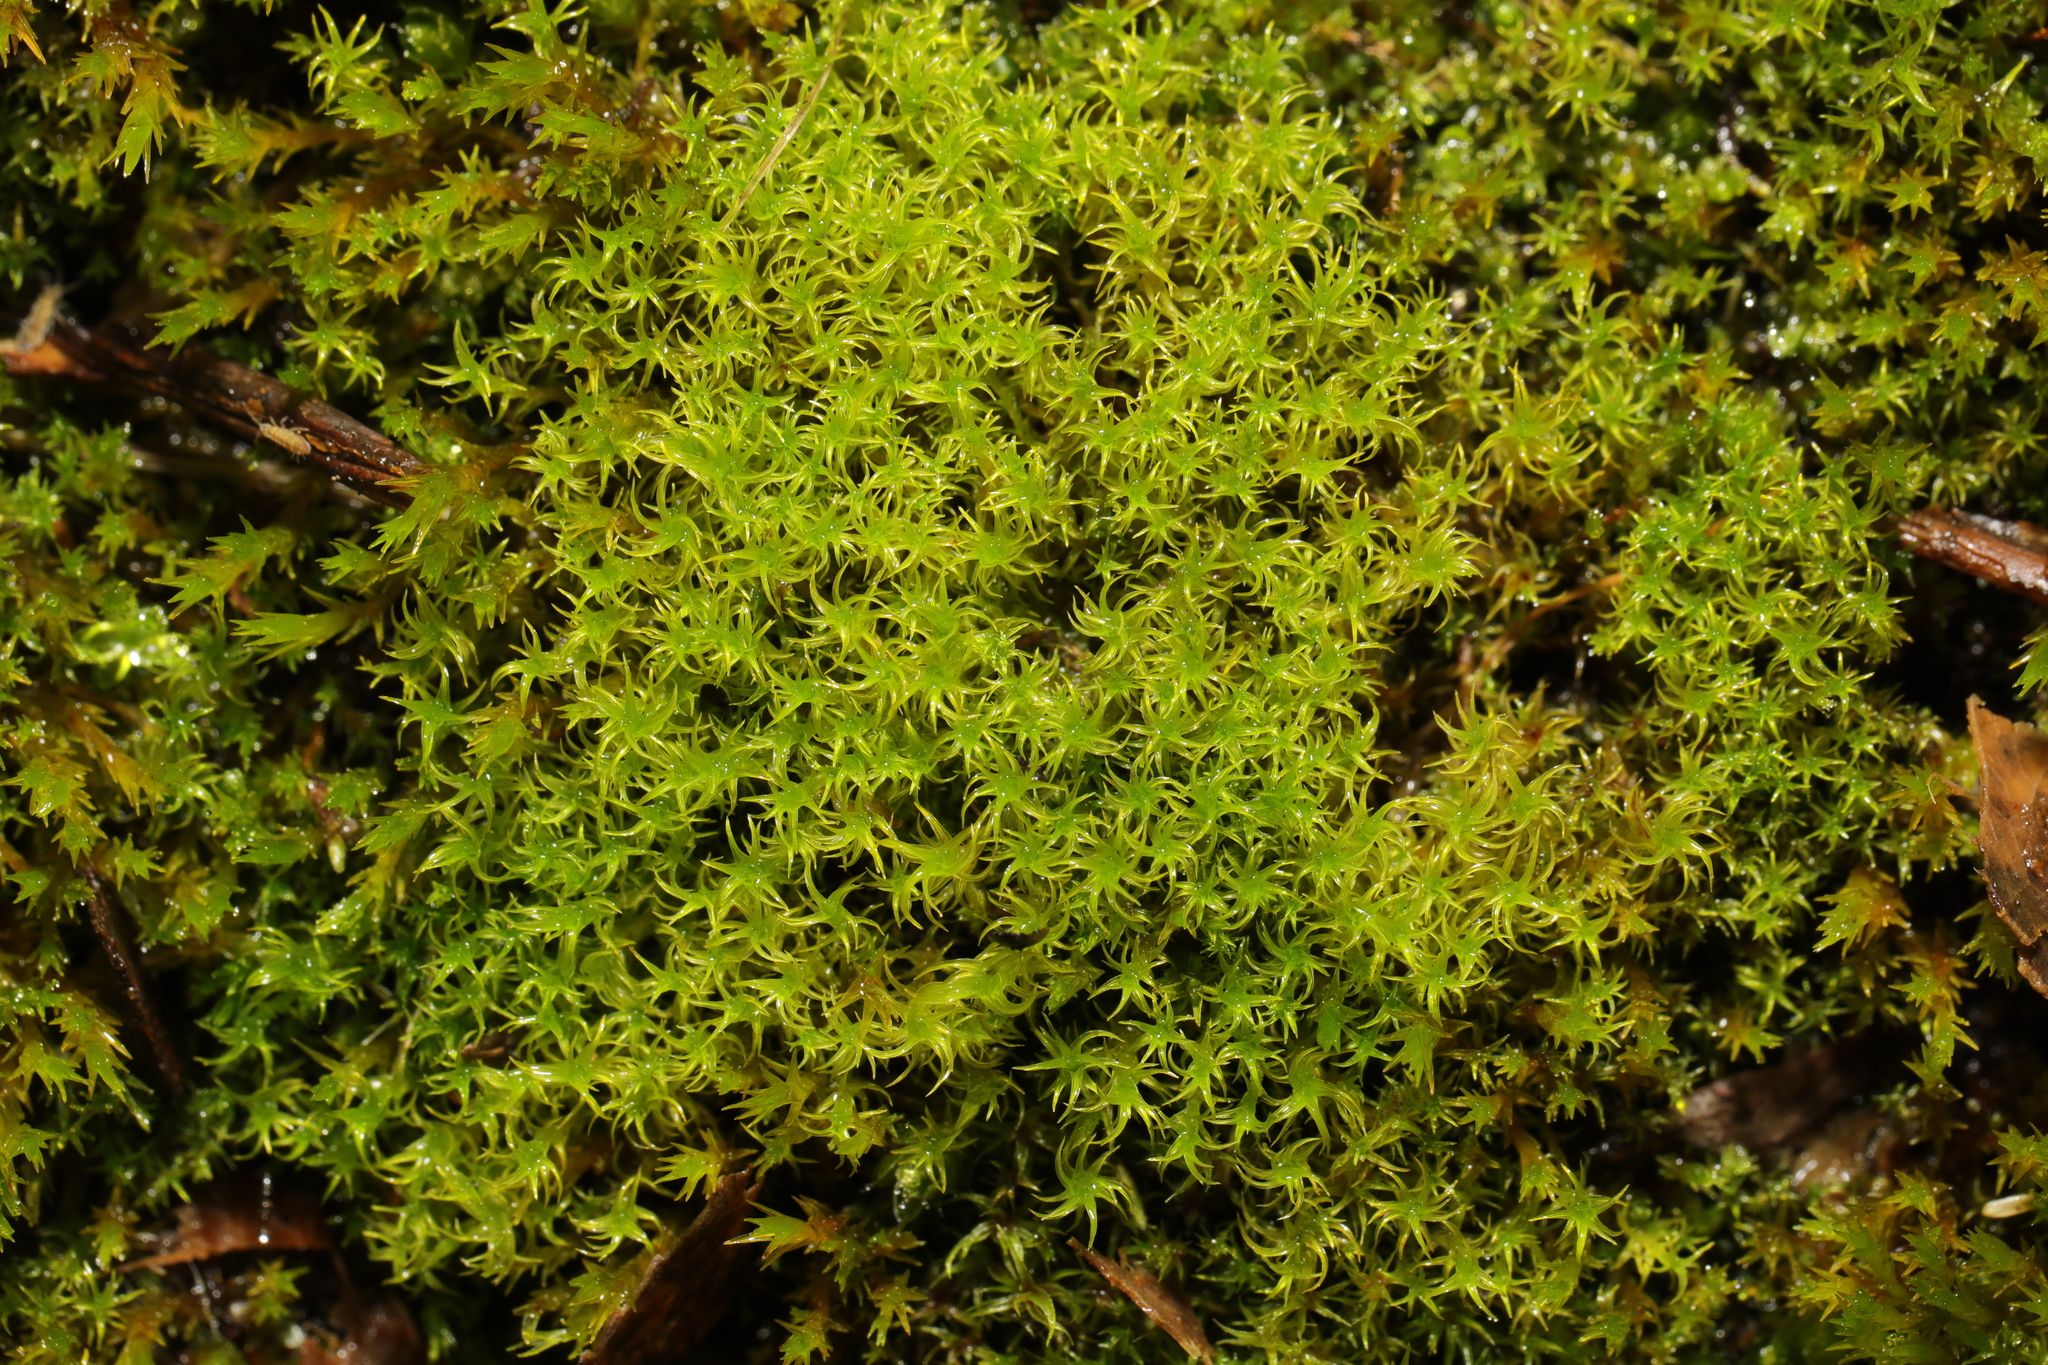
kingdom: Plantae
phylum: Bryophyta
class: Bryopsida
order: Pottiales
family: Pottiaceae
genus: Vinealobryum
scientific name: Vinealobryum insulanum
